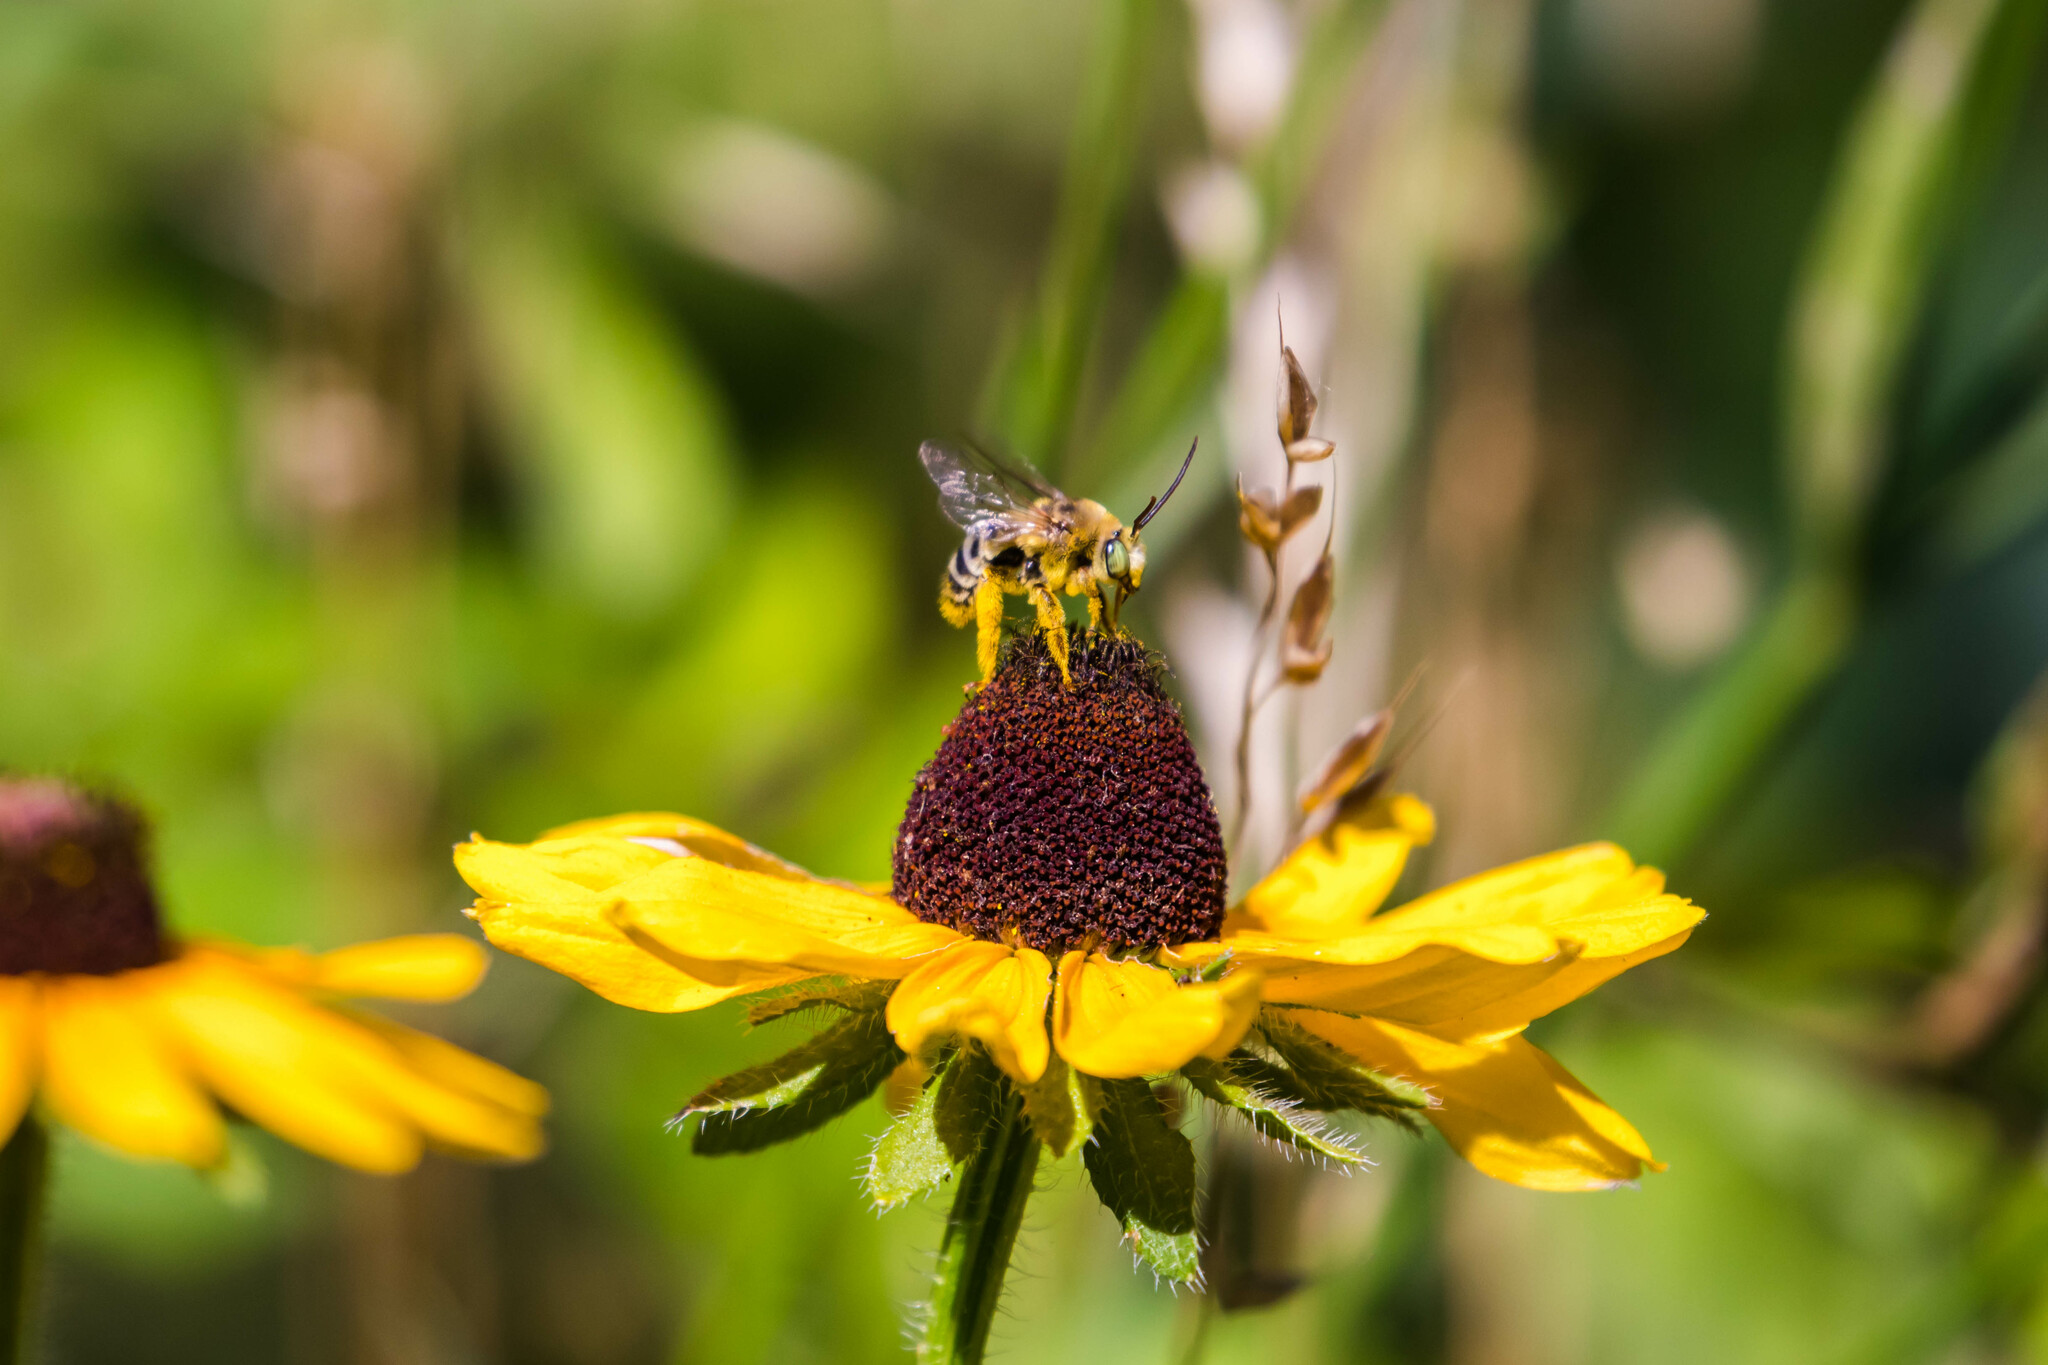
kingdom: Animalia
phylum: Arthropoda
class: Insecta
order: Hymenoptera
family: Apidae
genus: Svastra
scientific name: Svastra petulca
